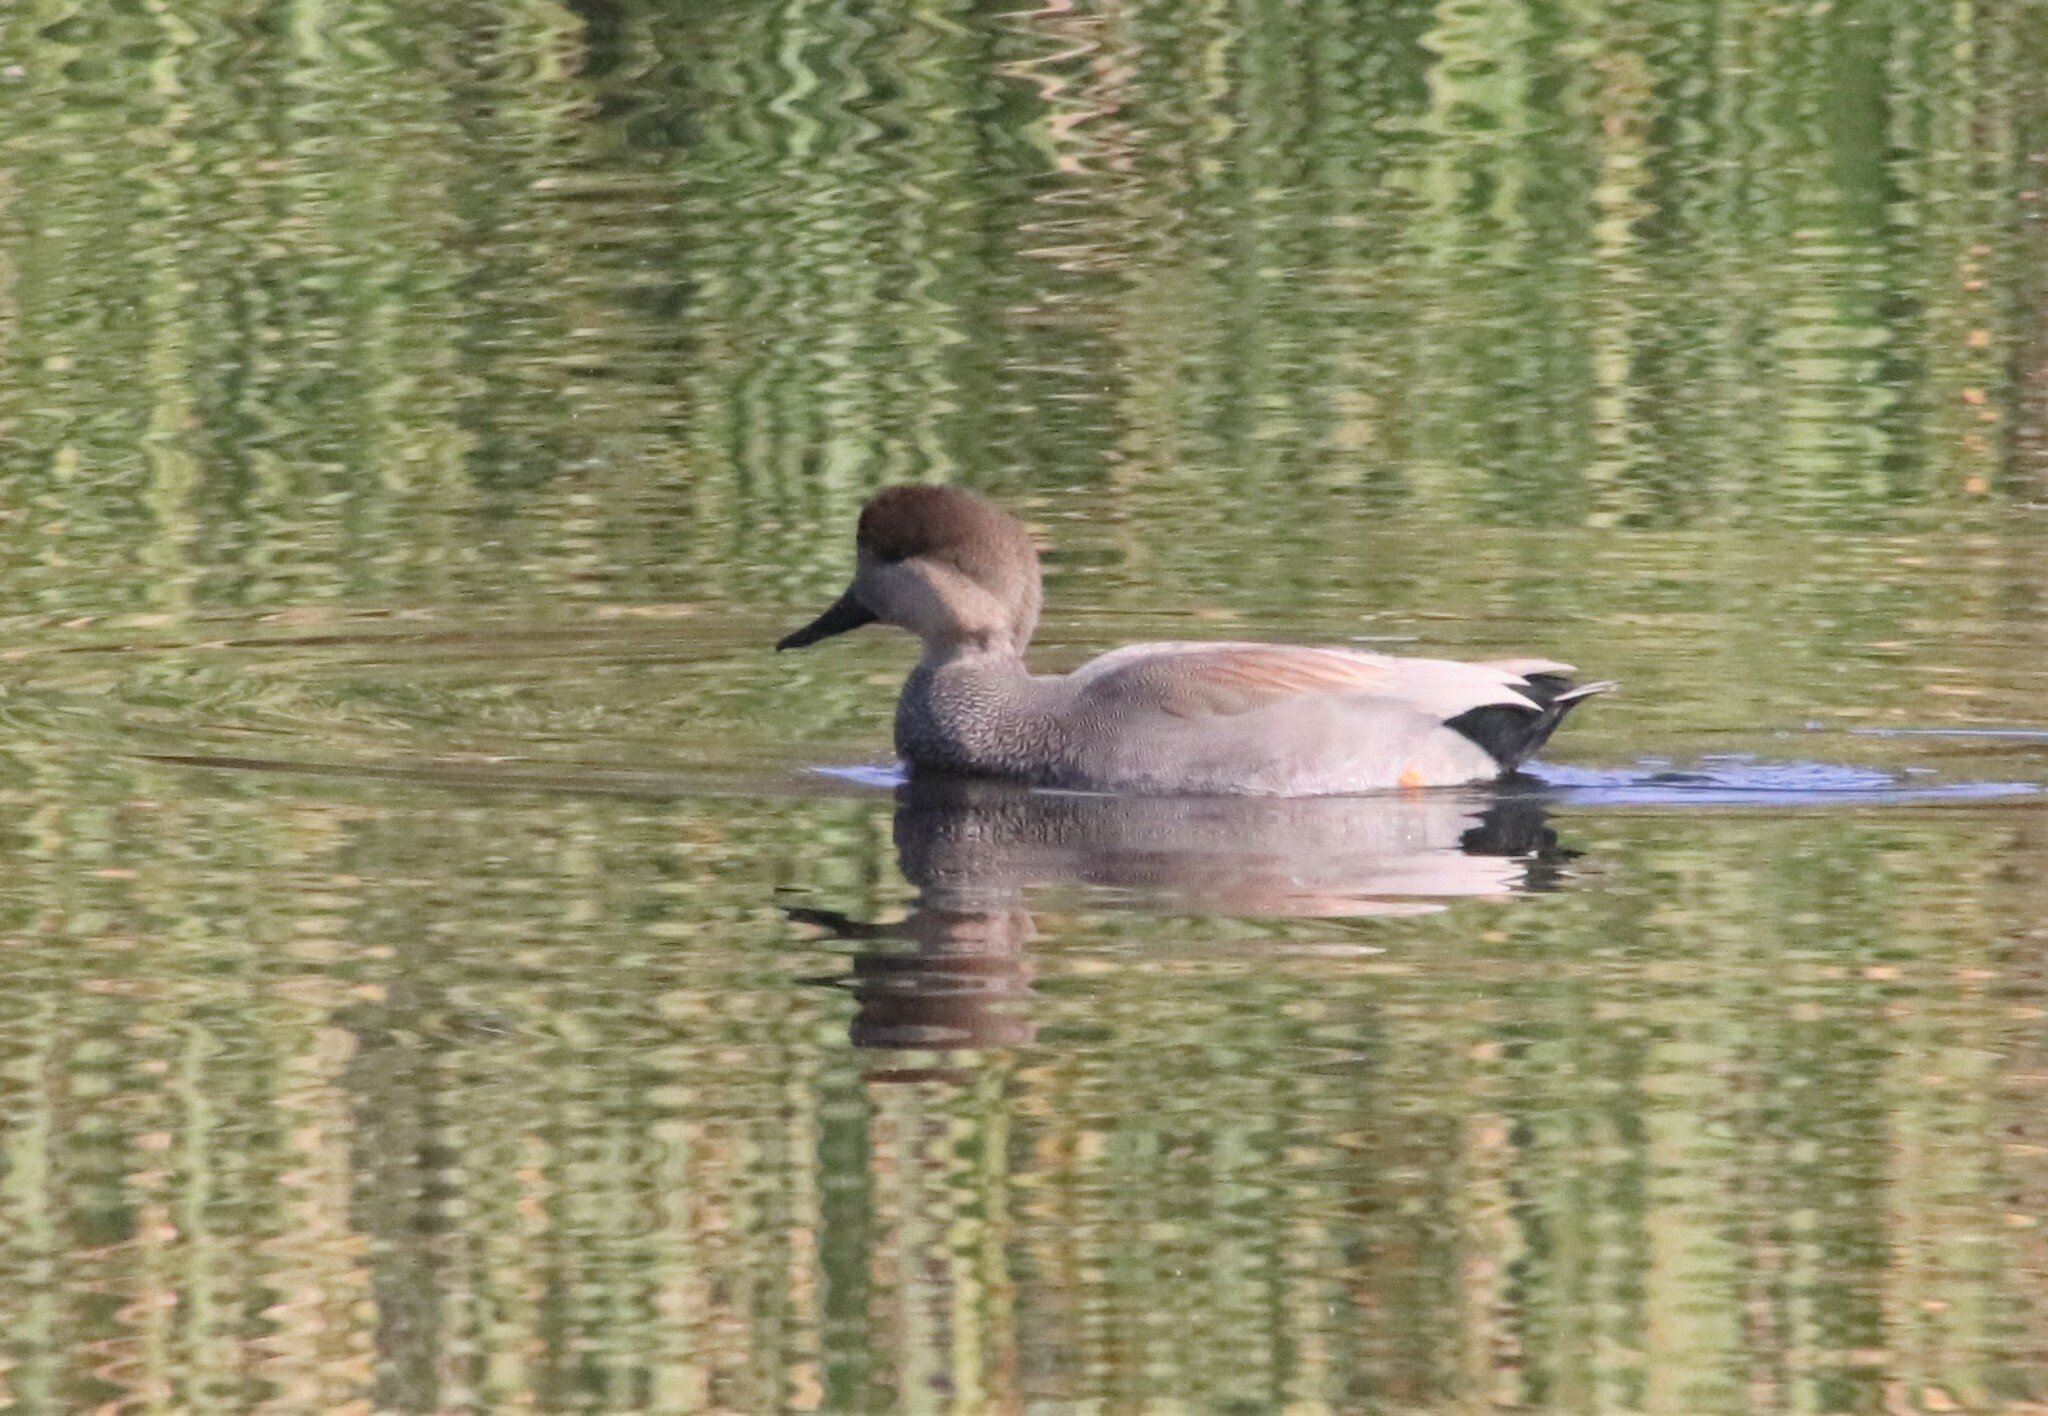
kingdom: Animalia
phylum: Chordata
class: Aves
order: Anseriformes
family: Anatidae
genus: Mareca
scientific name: Mareca strepera
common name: Gadwall
